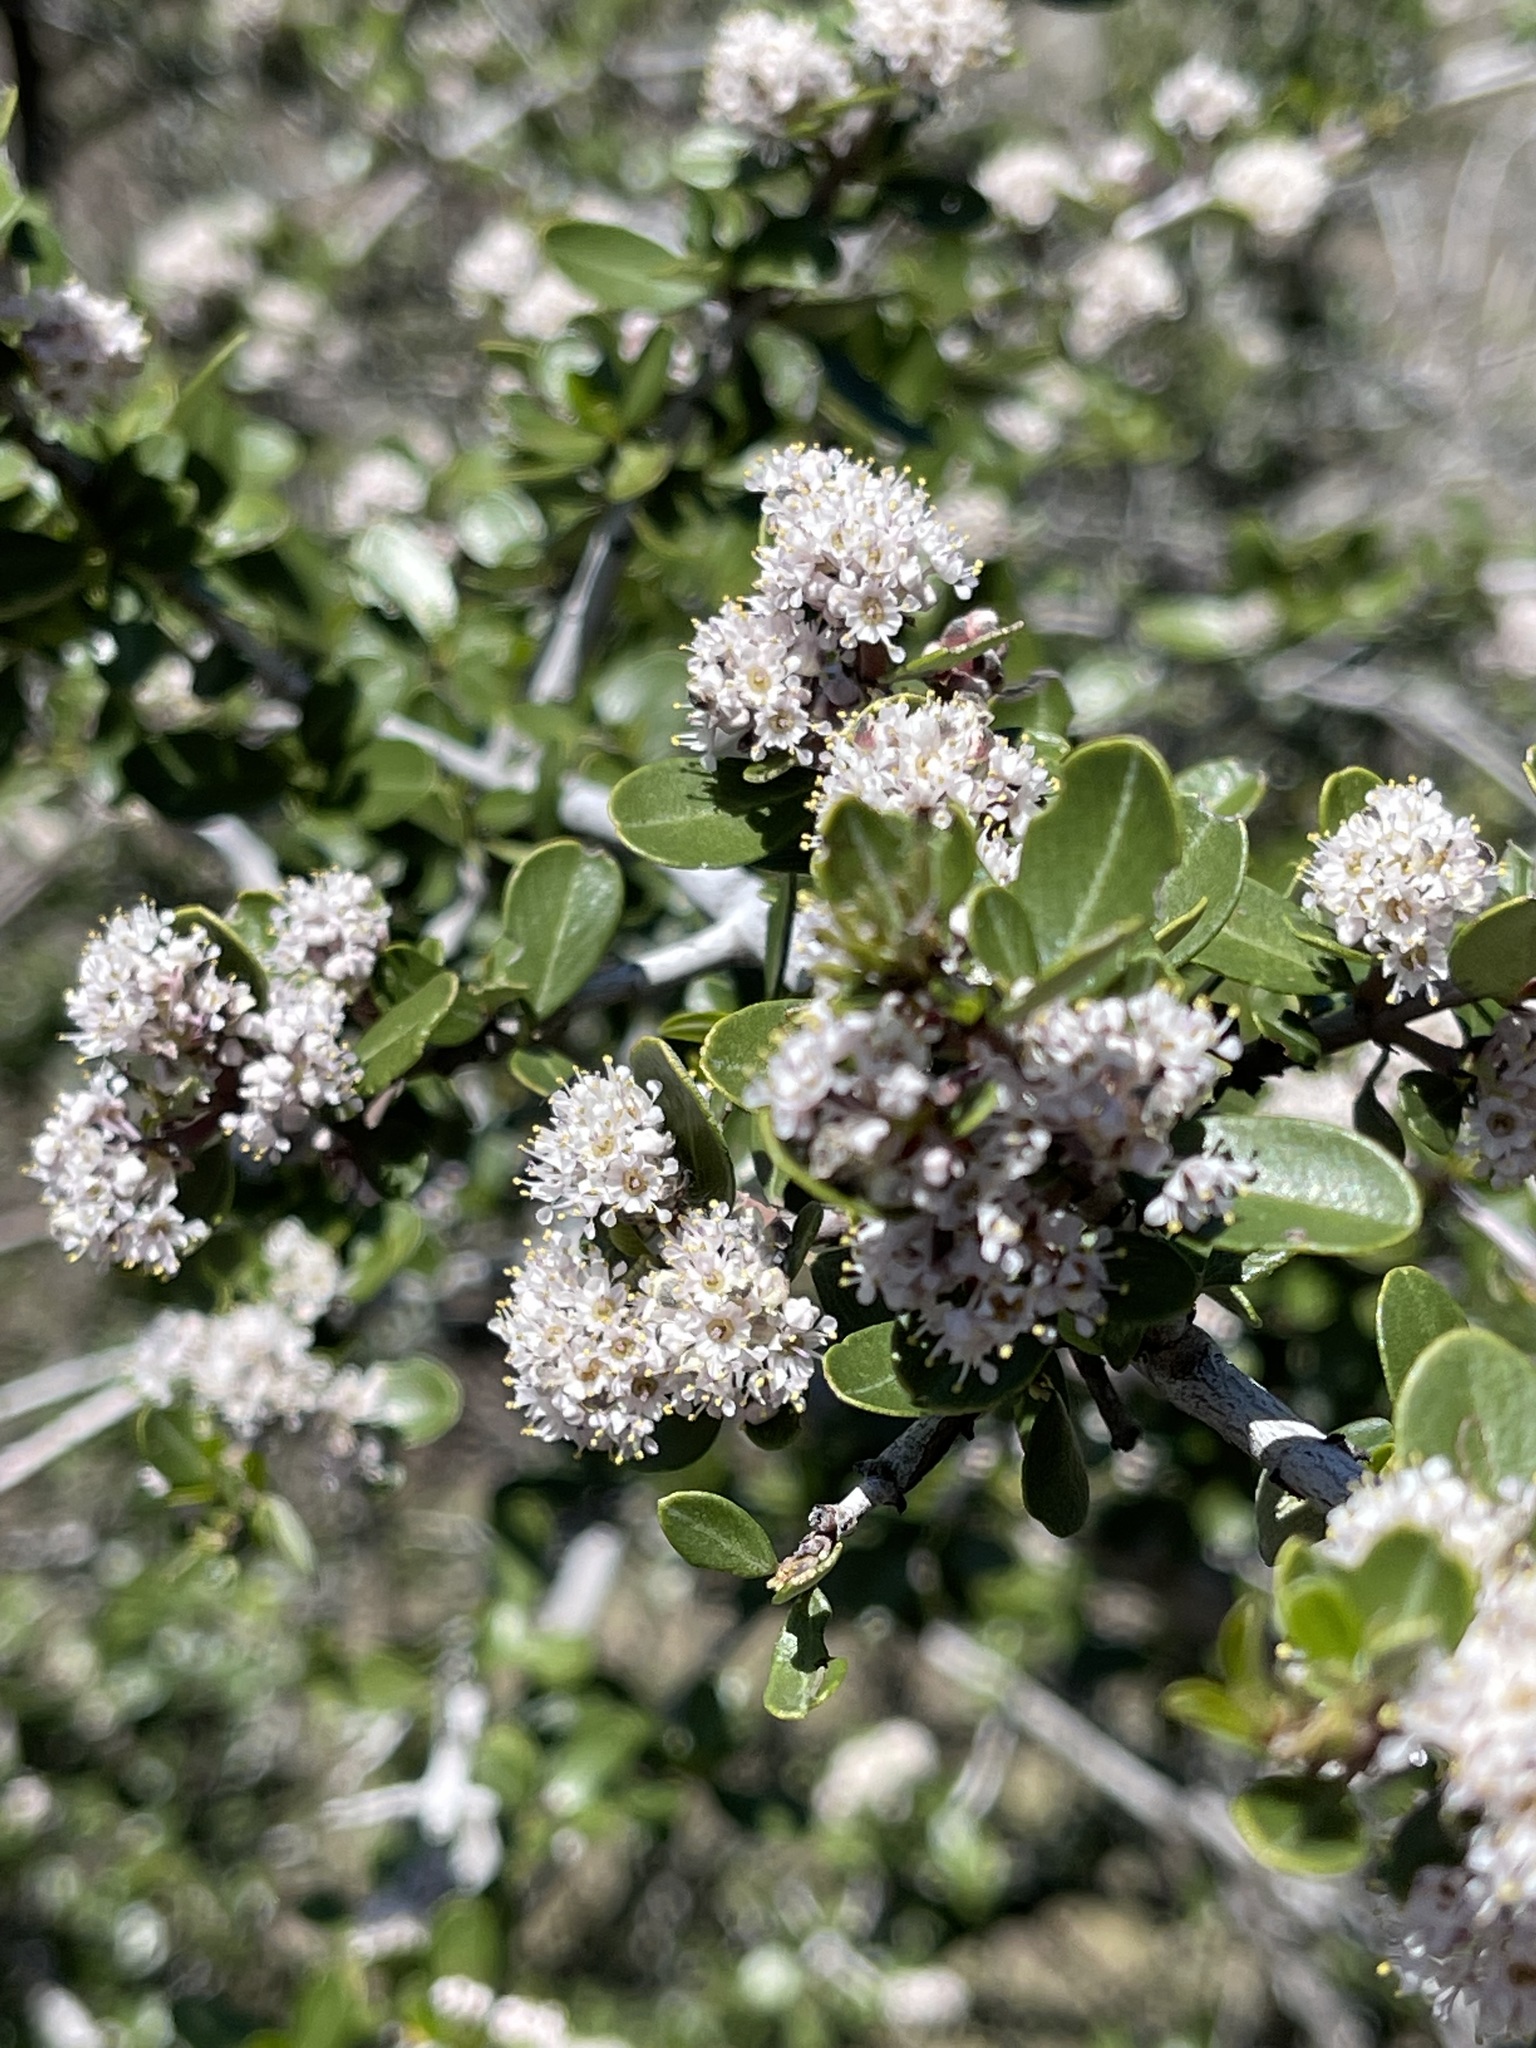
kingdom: Plantae
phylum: Tracheophyta
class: Magnoliopsida
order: Rosales
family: Rhamnaceae
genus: Ceanothus
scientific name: Ceanothus cuneatus
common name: Cuneate ceanothus
